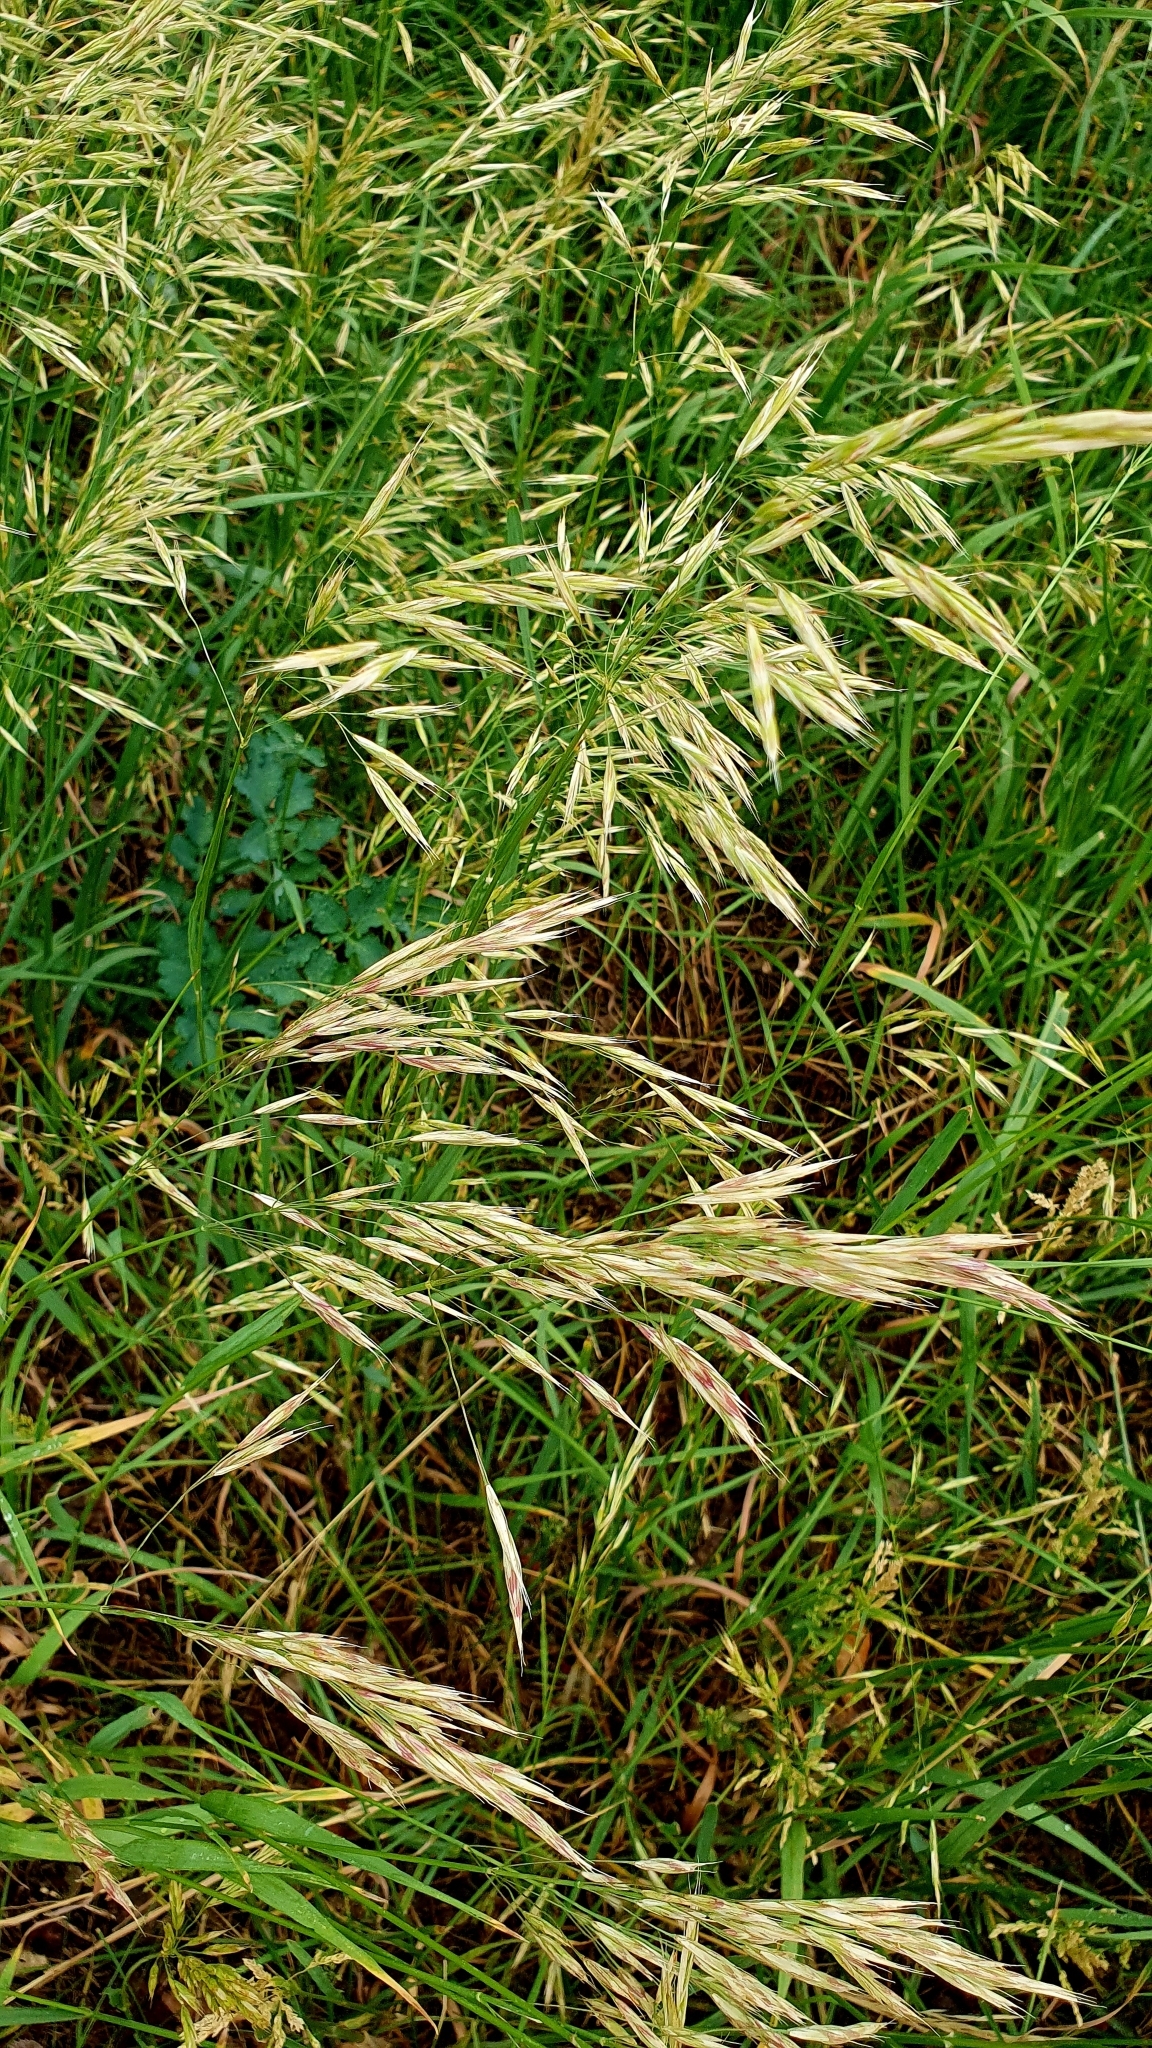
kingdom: Plantae
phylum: Tracheophyta
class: Liliopsida
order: Poales
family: Poaceae
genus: Bromus
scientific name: Bromus inermis
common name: Smooth brome
